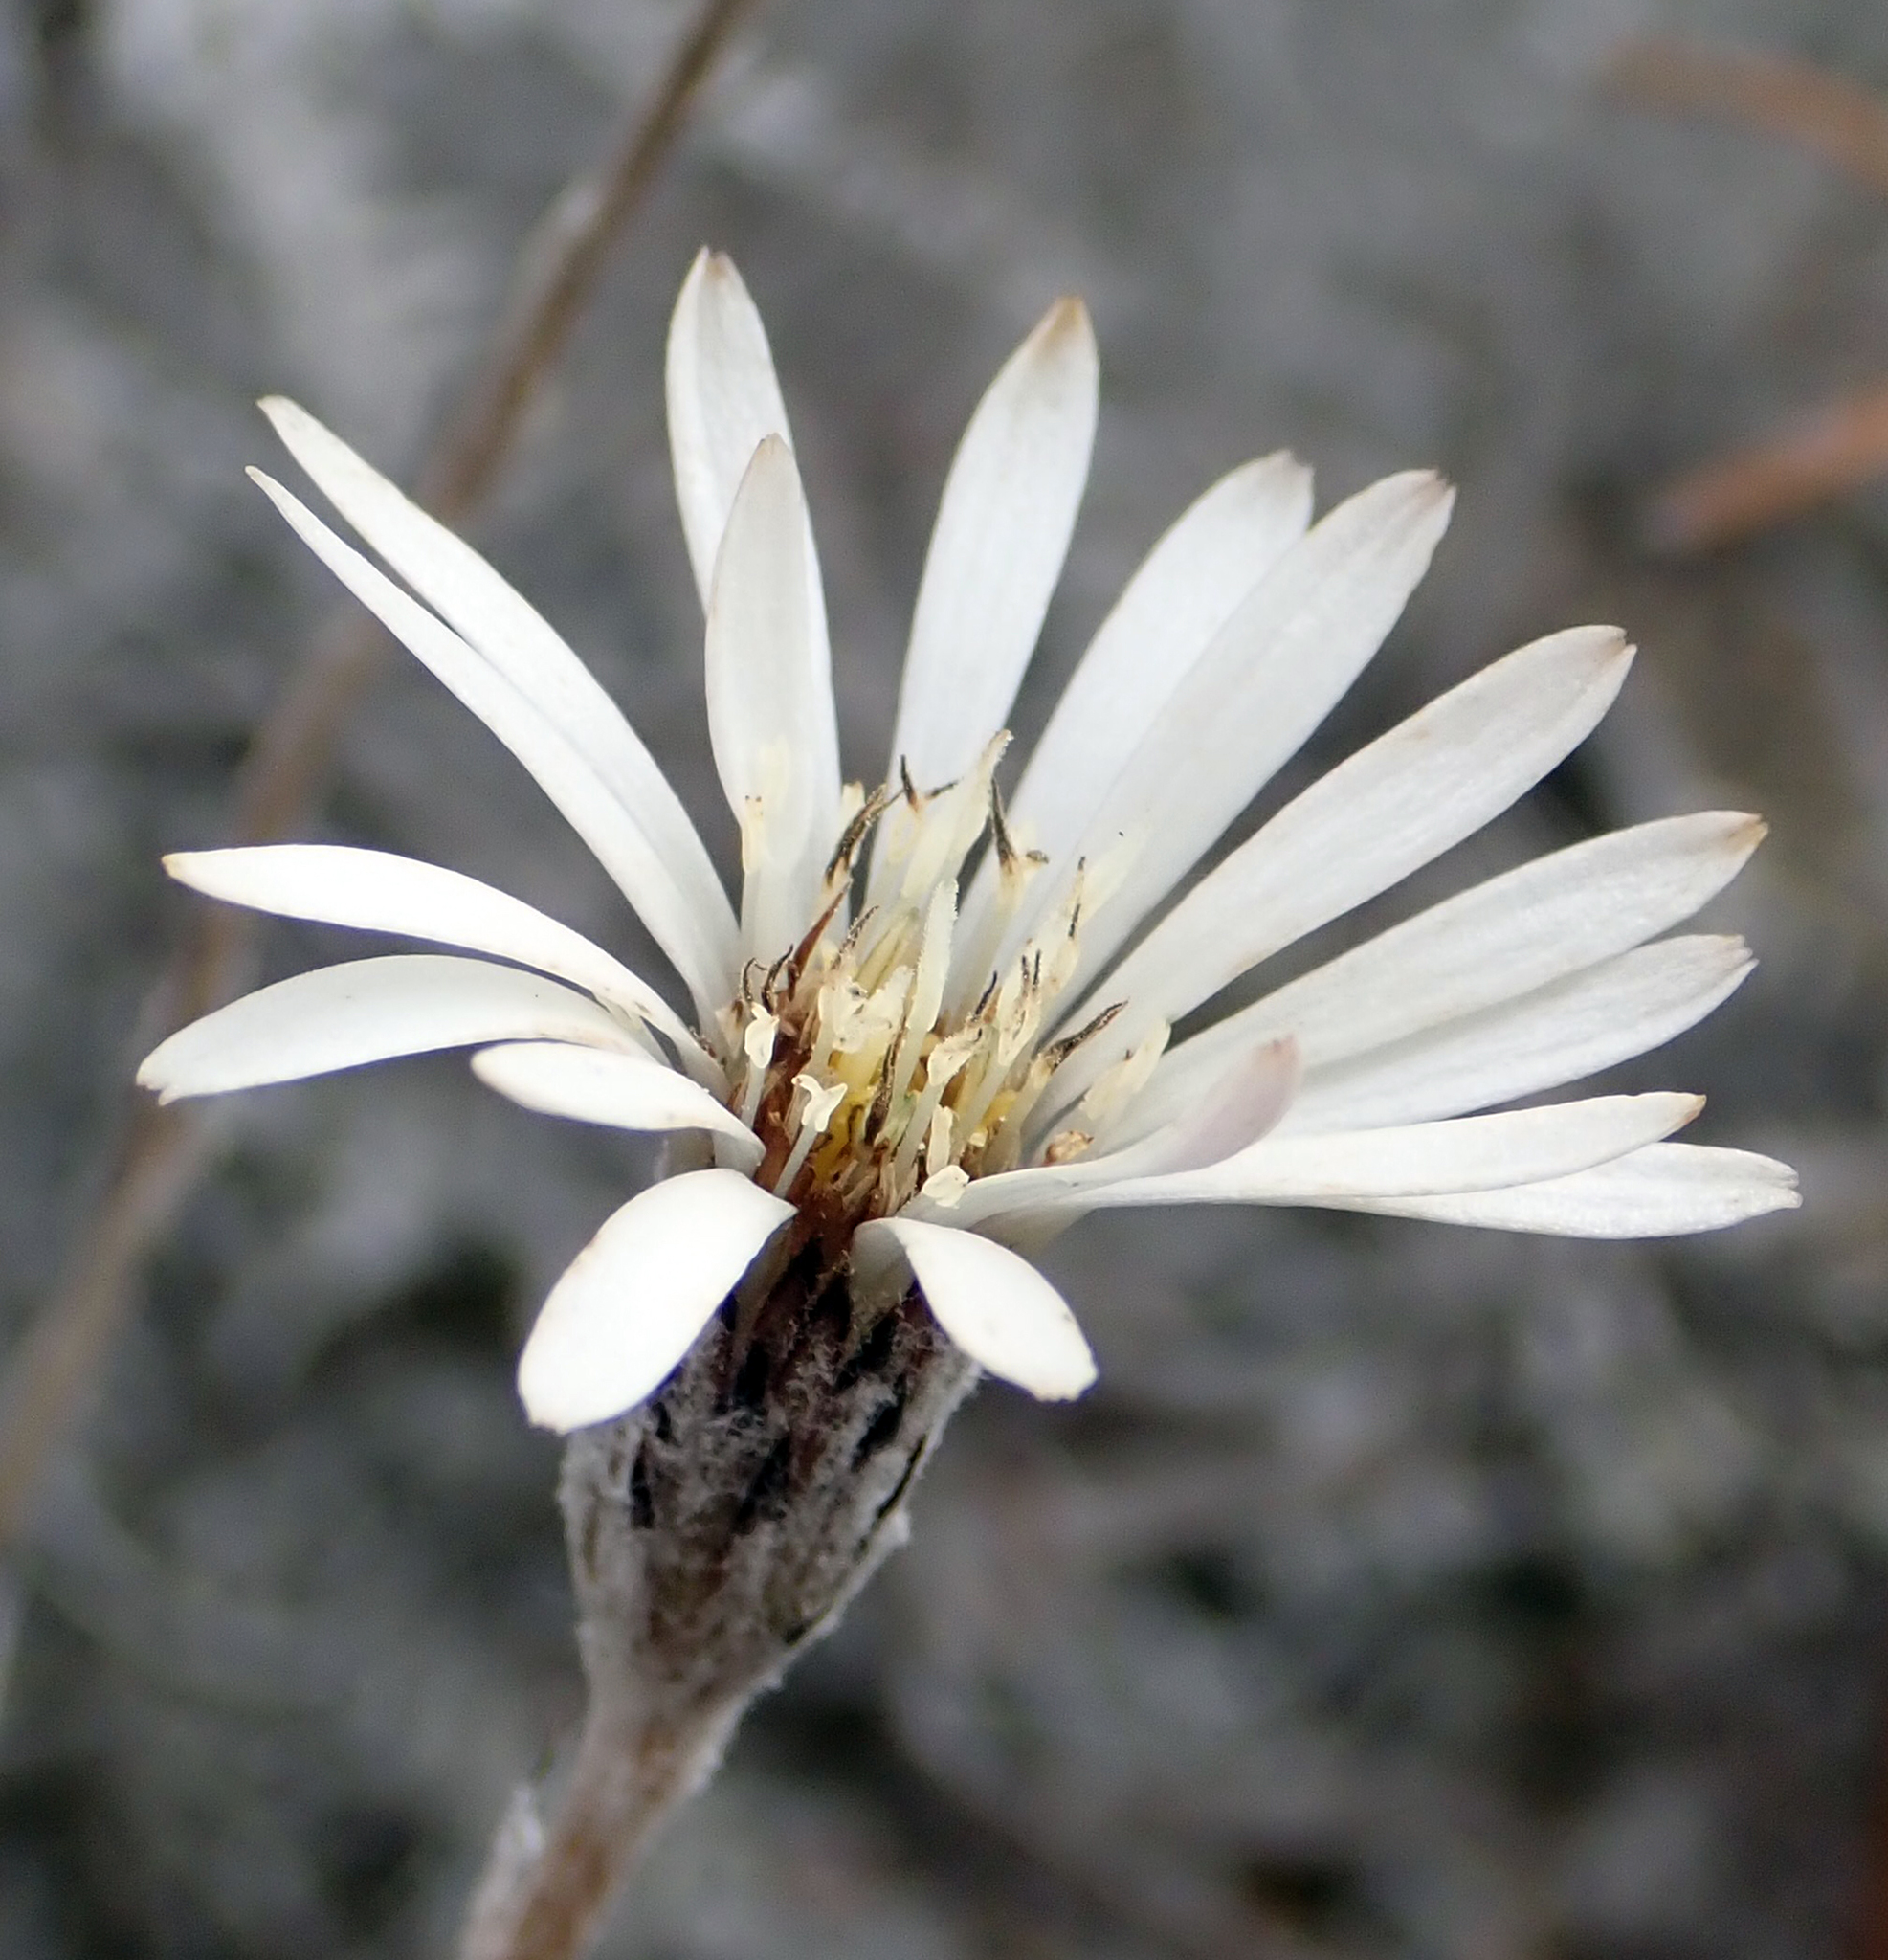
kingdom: Plantae
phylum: Tracheophyta
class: Magnoliopsida
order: Asterales
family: Asteraceae
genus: Celmisia
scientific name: Celmisia gracilenta
